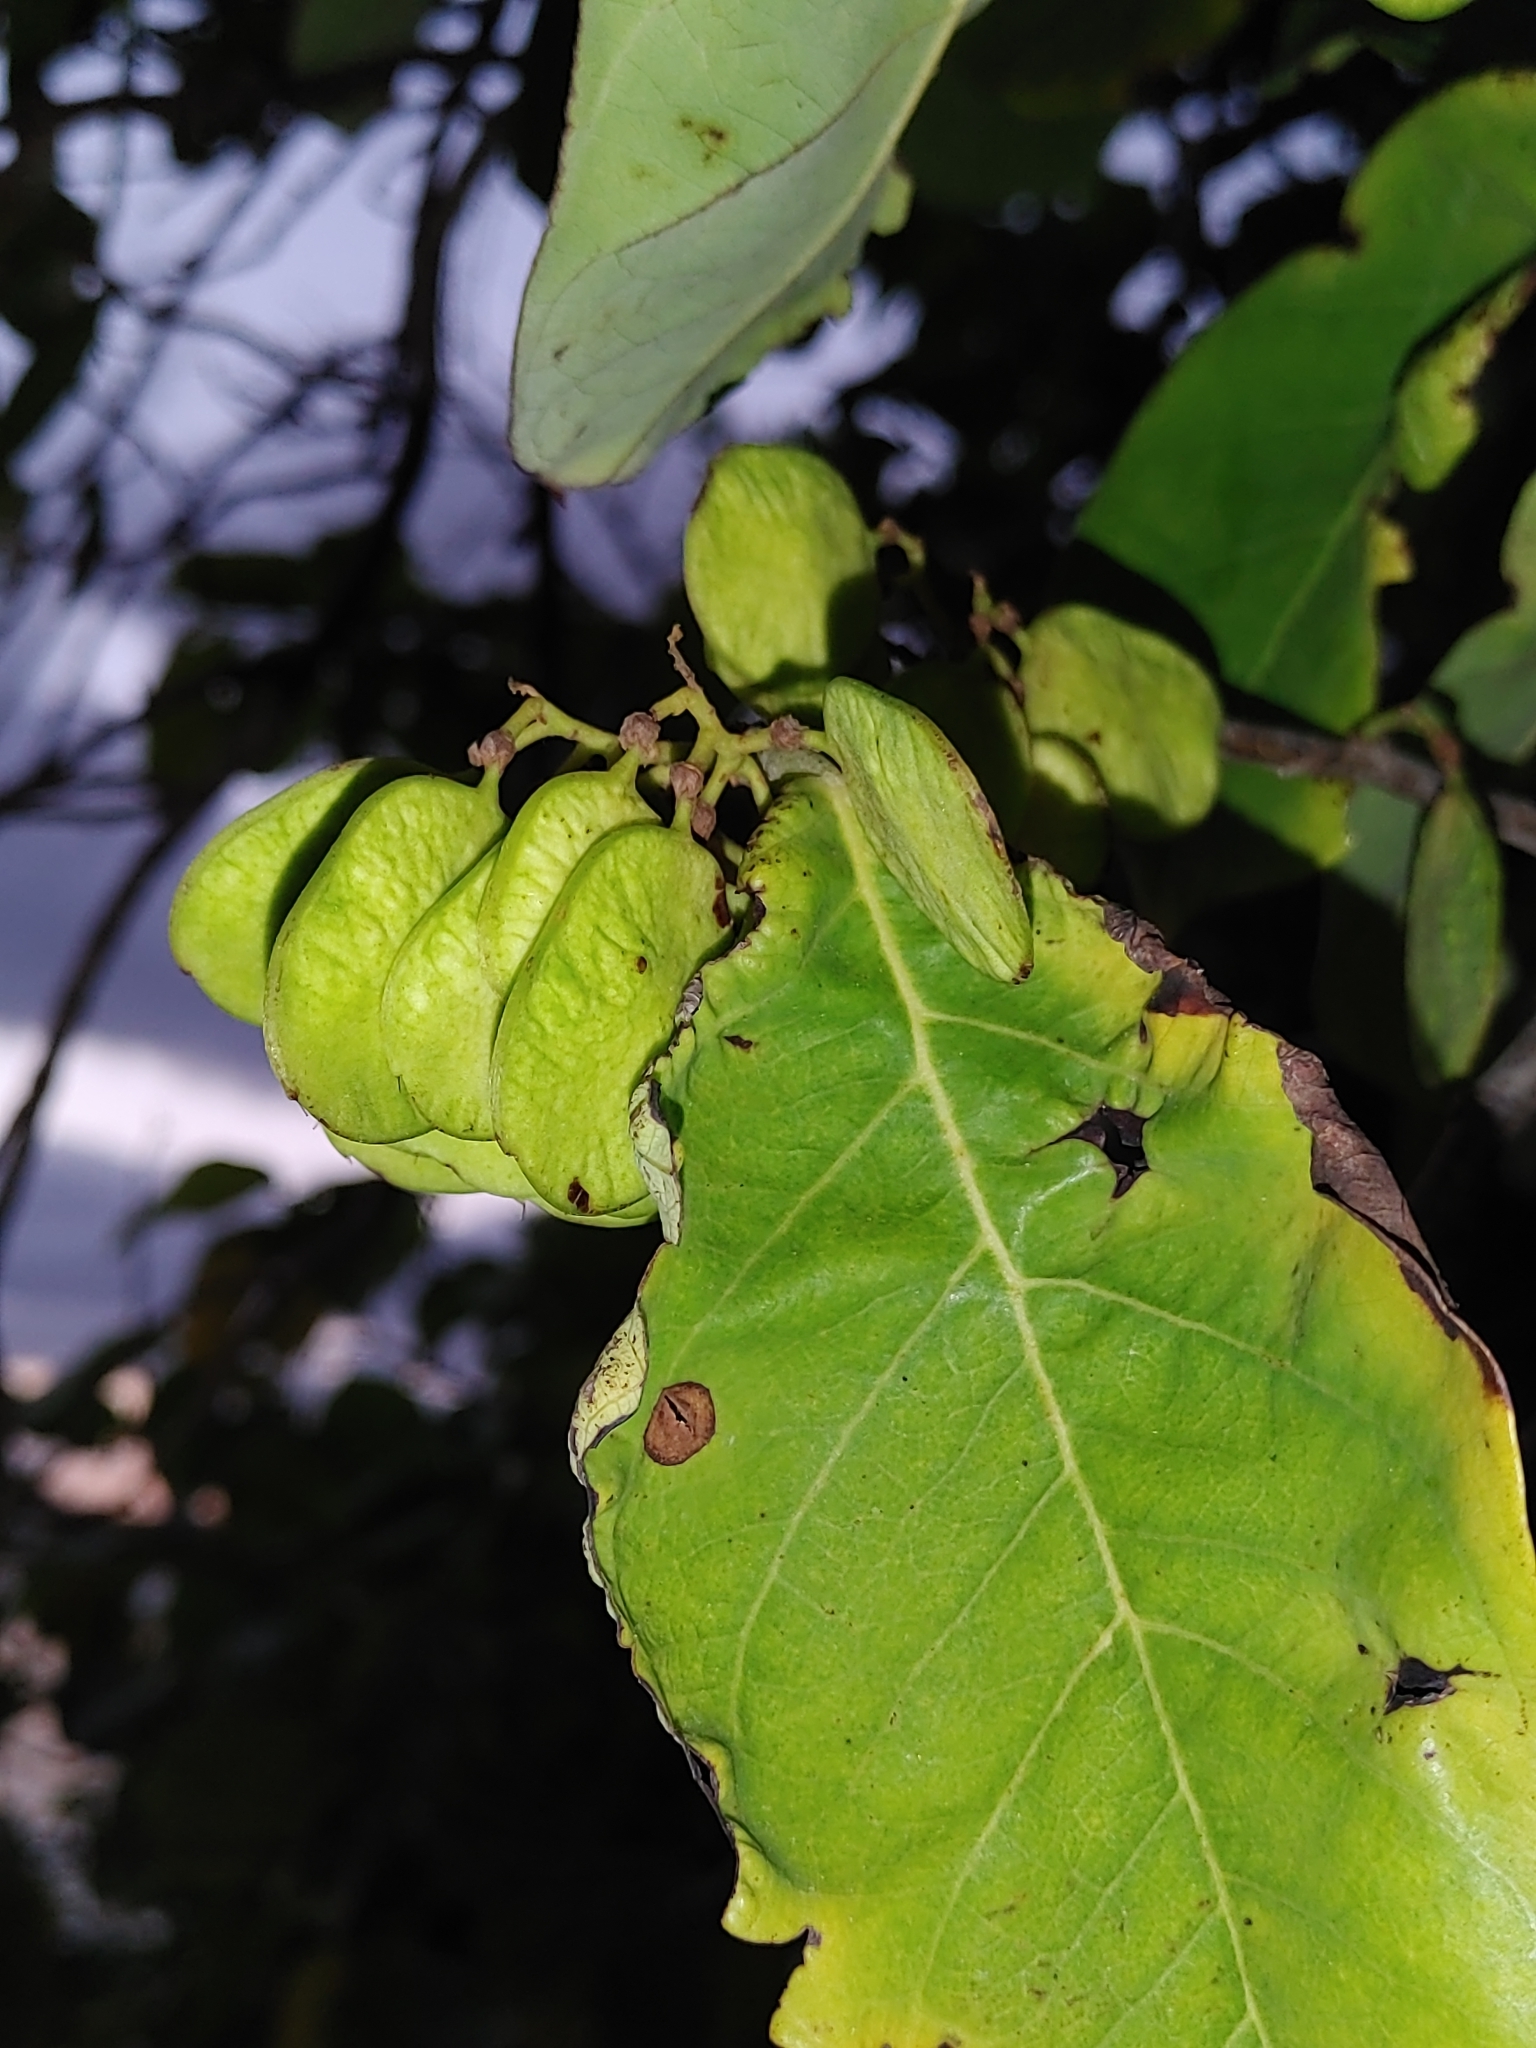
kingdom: Plantae
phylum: Tracheophyta
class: Magnoliopsida
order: Fabales
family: Fabaceae
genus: Dalbergia
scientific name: Dalbergia ecastaphyllum
